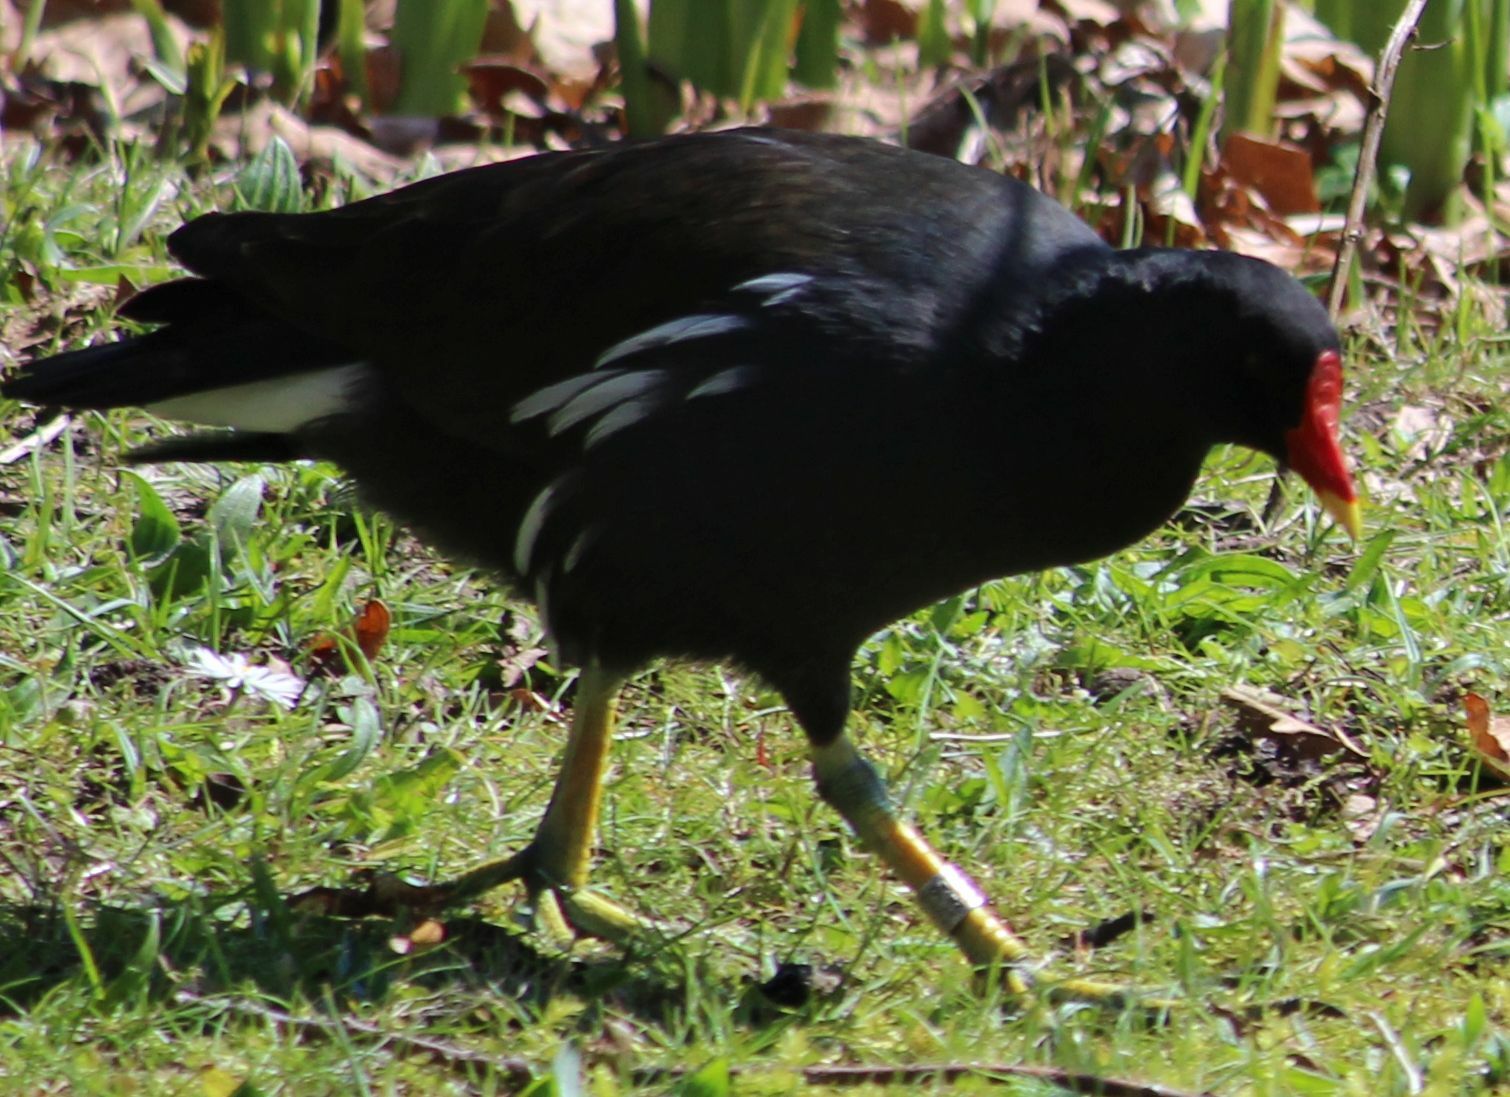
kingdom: Animalia
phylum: Chordata
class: Aves
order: Gruiformes
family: Rallidae
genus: Gallinula
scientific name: Gallinula chloropus
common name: Common moorhen
